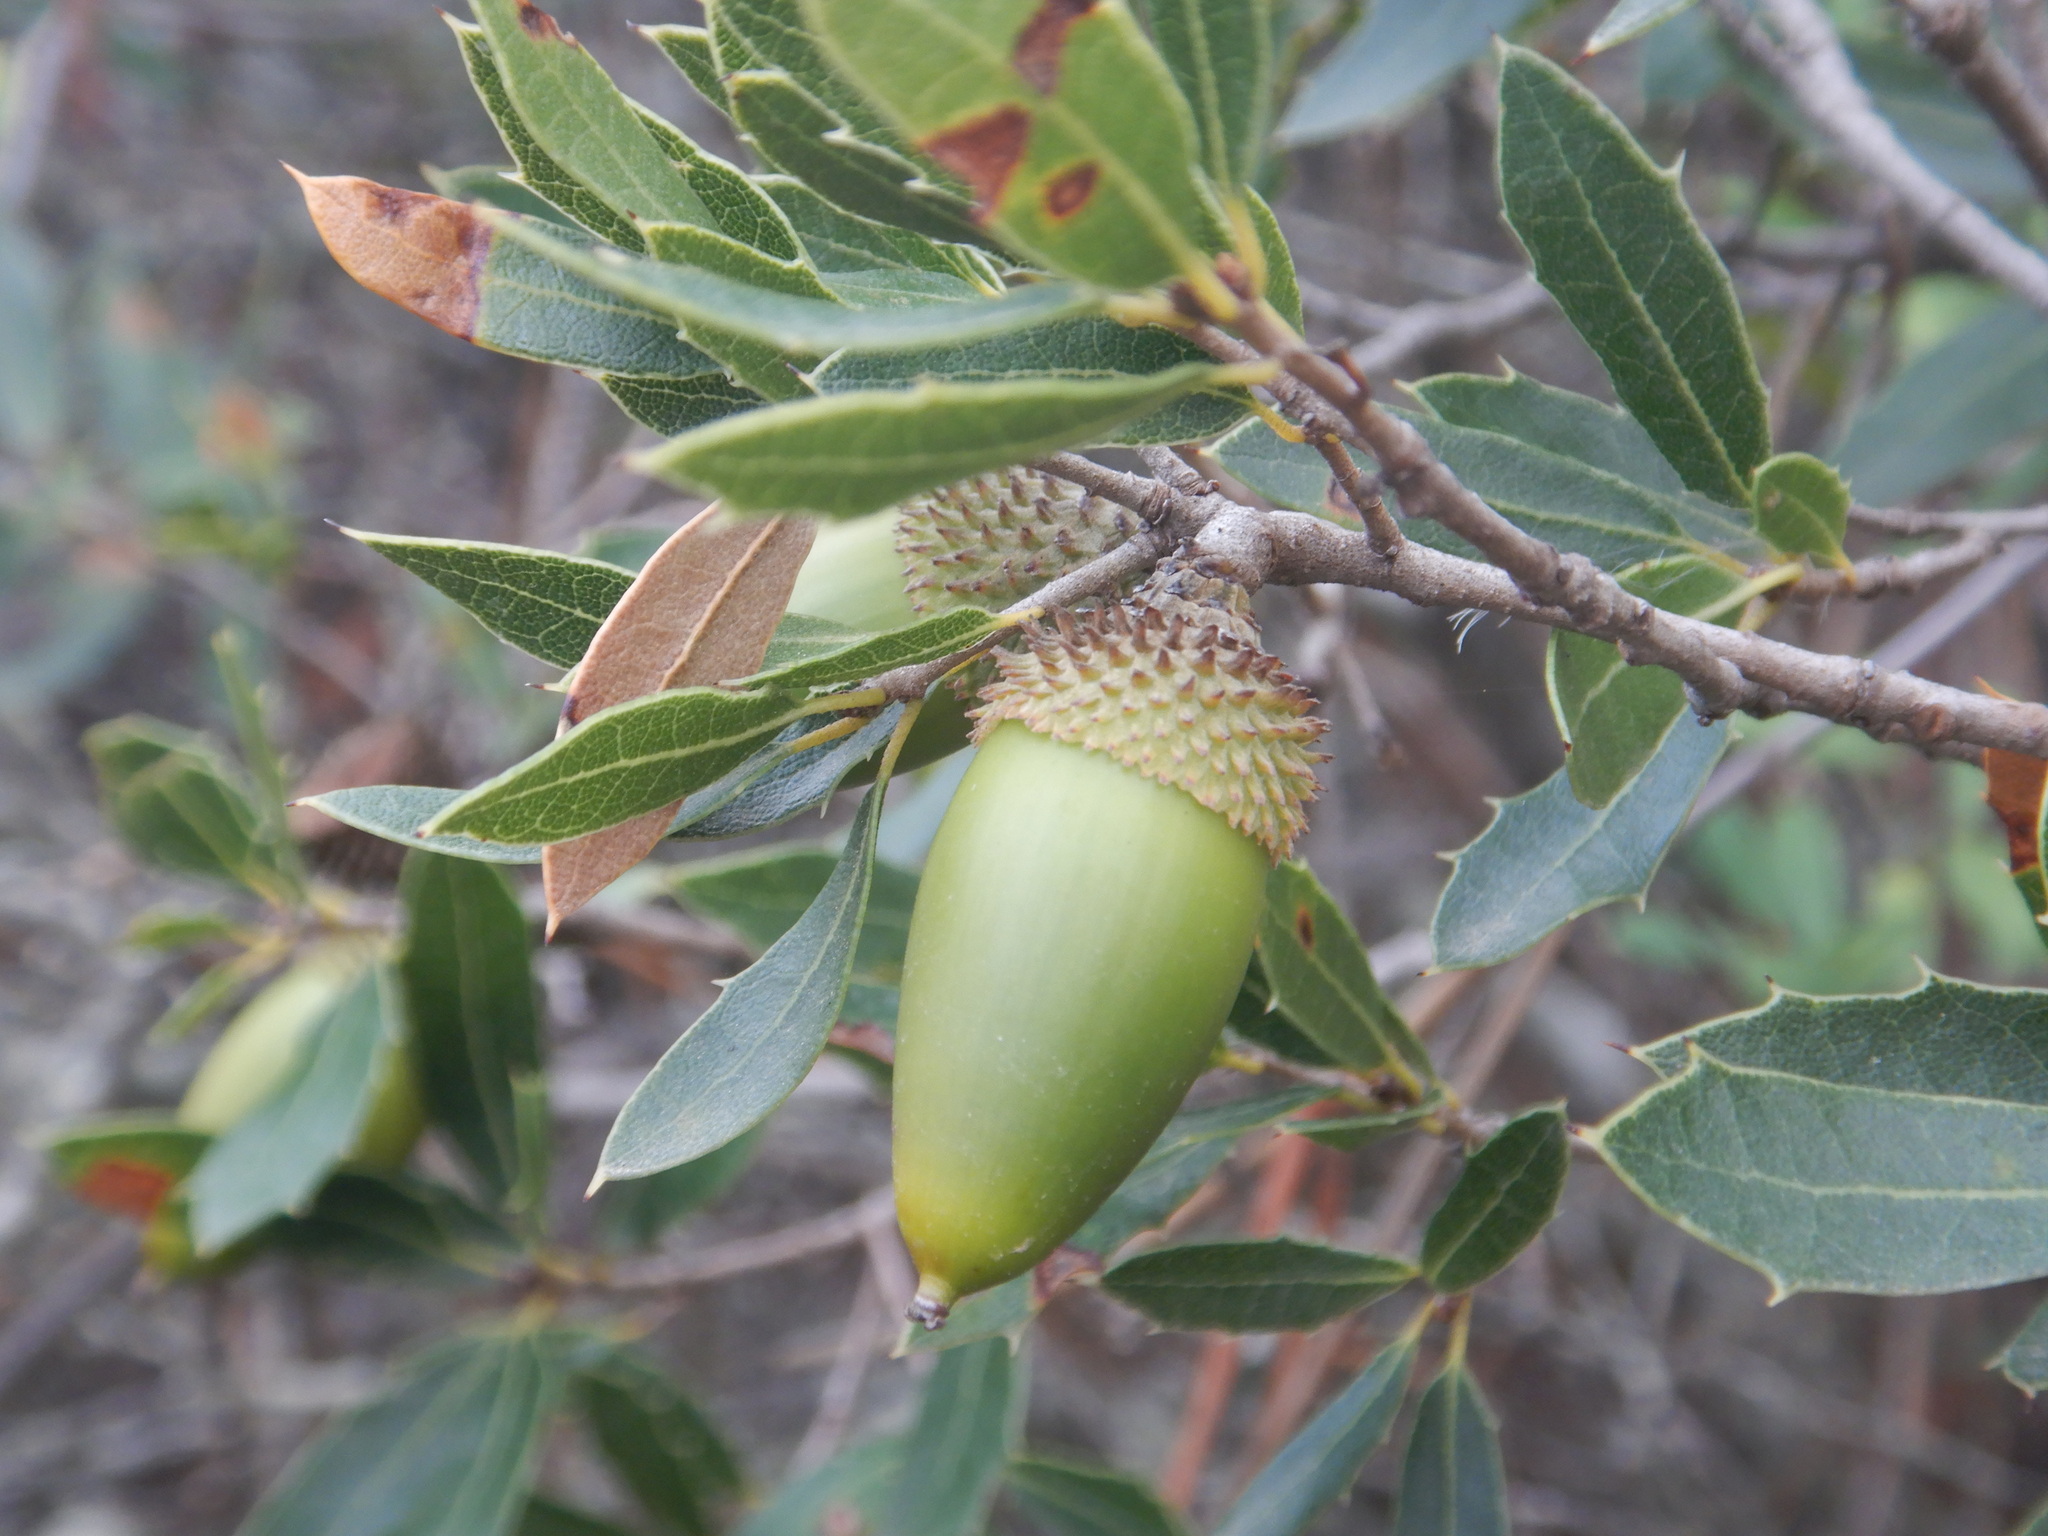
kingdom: Plantae
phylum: Tracheophyta
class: Magnoliopsida
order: Fagales
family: Fagaceae
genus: Quercus
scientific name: Quercus coccifera
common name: Kermes oak
